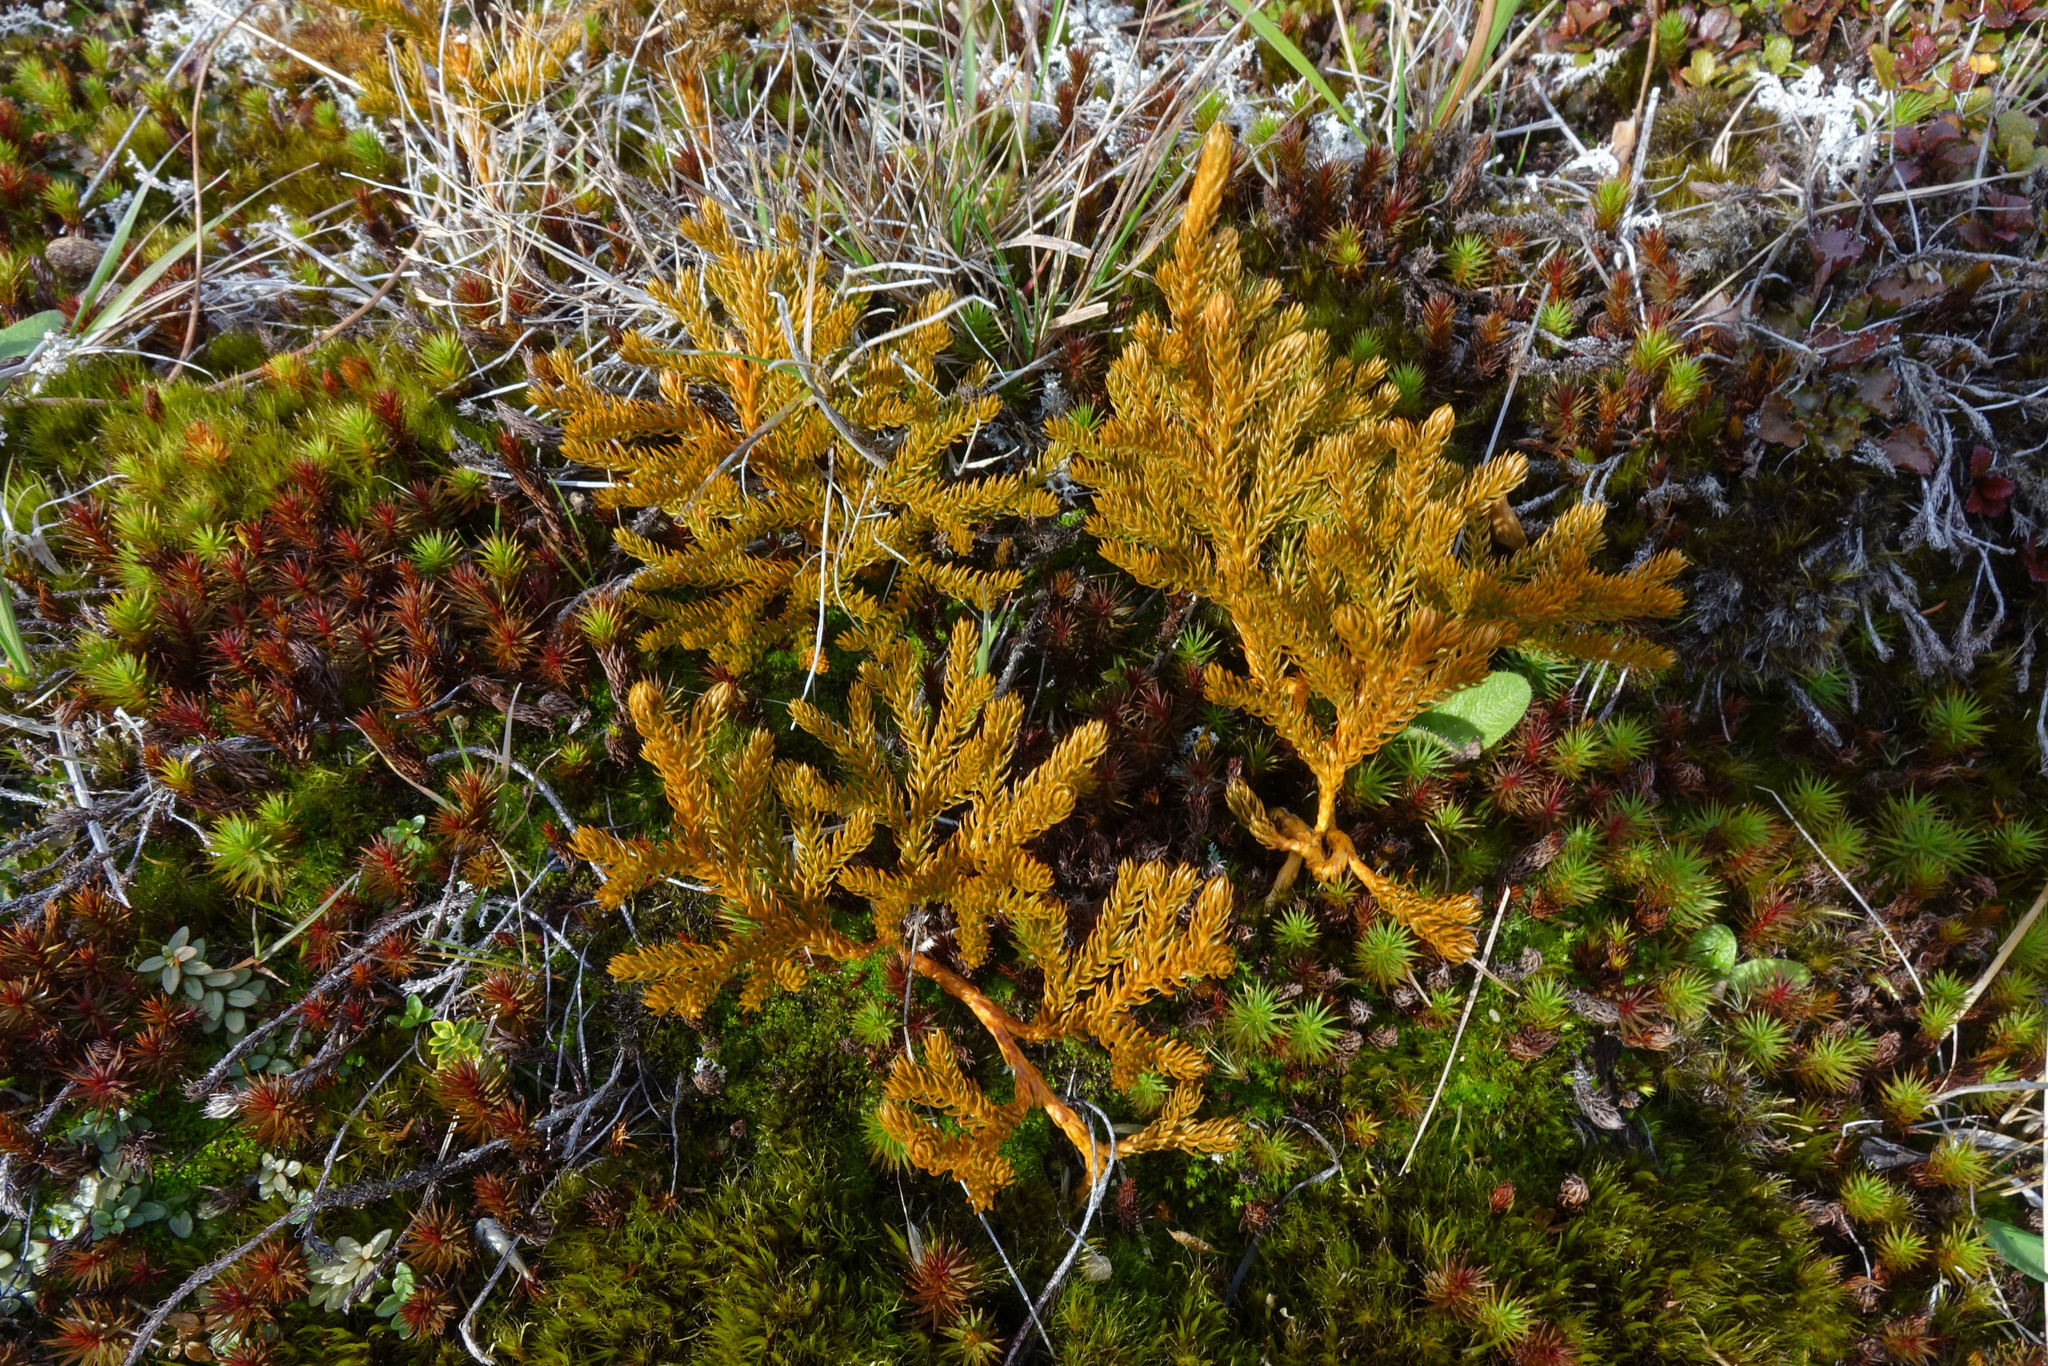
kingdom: Plantae
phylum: Tracheophyta
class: Lycopodiopsida
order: Lycopodiales
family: Lycopodiaceae
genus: Austrolycopodium
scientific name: Austrolycopodium fastigiatum
